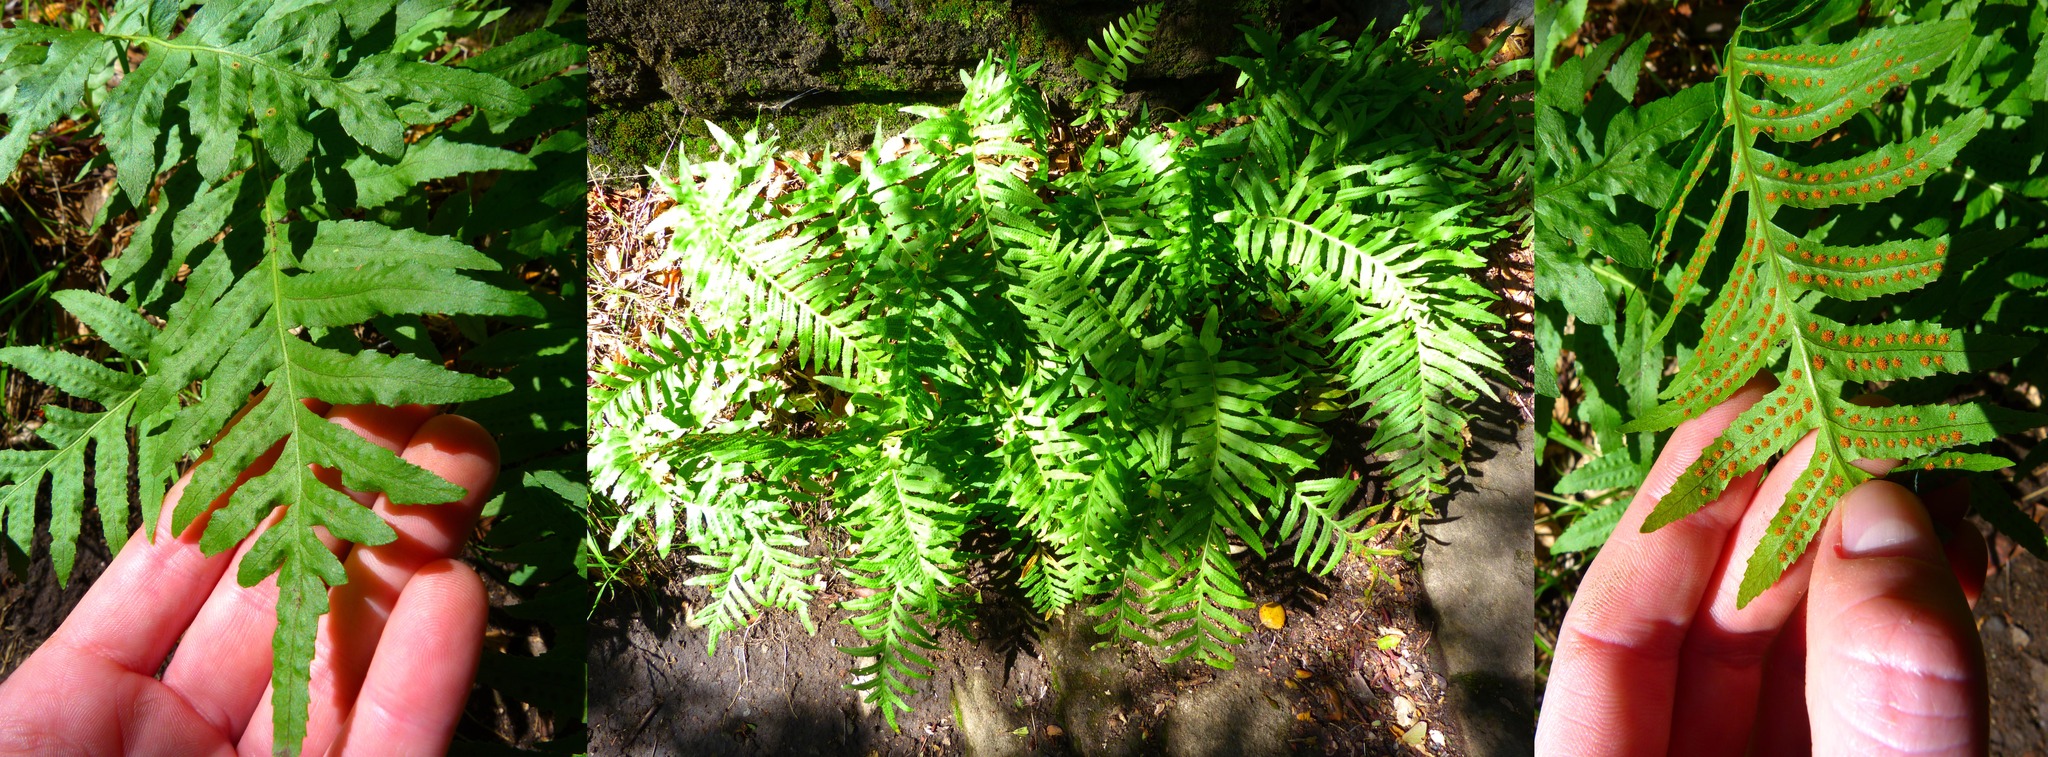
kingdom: Plantae
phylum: Tracheophyta
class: Polypodiopsida
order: Polypodiales
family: Polypodiaceae
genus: Polypodium
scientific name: Polypodium californicum
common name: California polypody
